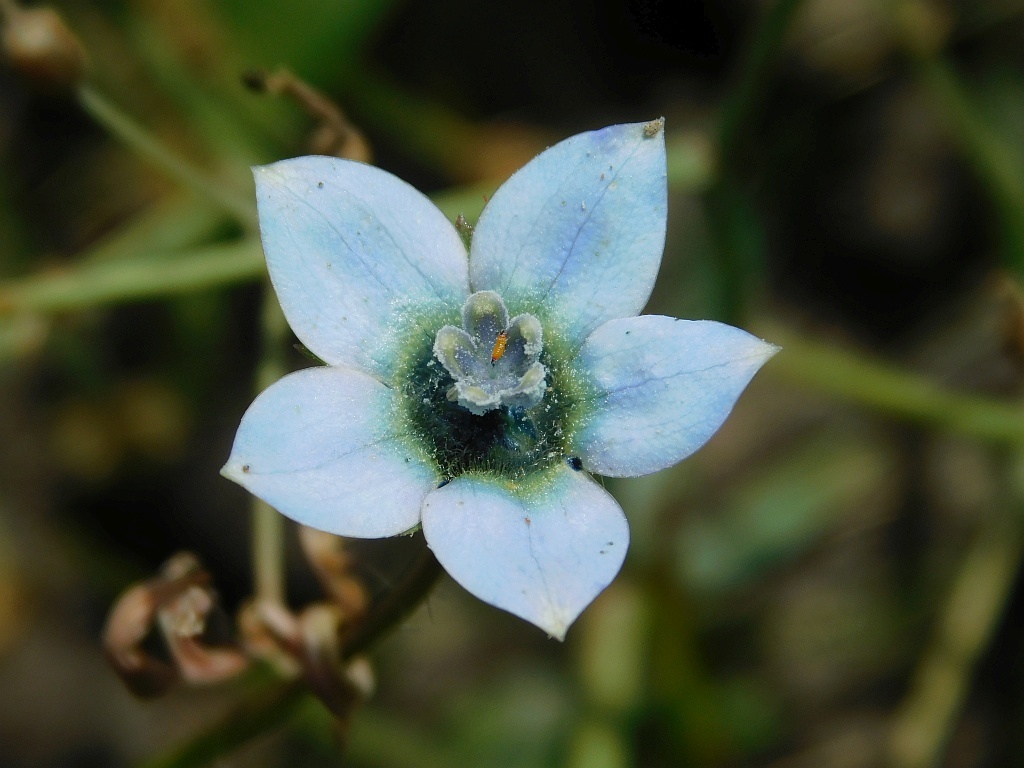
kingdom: Plantae
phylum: Tracheophyta
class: Magnoliopsida
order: Asterales
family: Campanulaceae
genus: Wahlenbergia
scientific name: Wahlenbergia capensis
